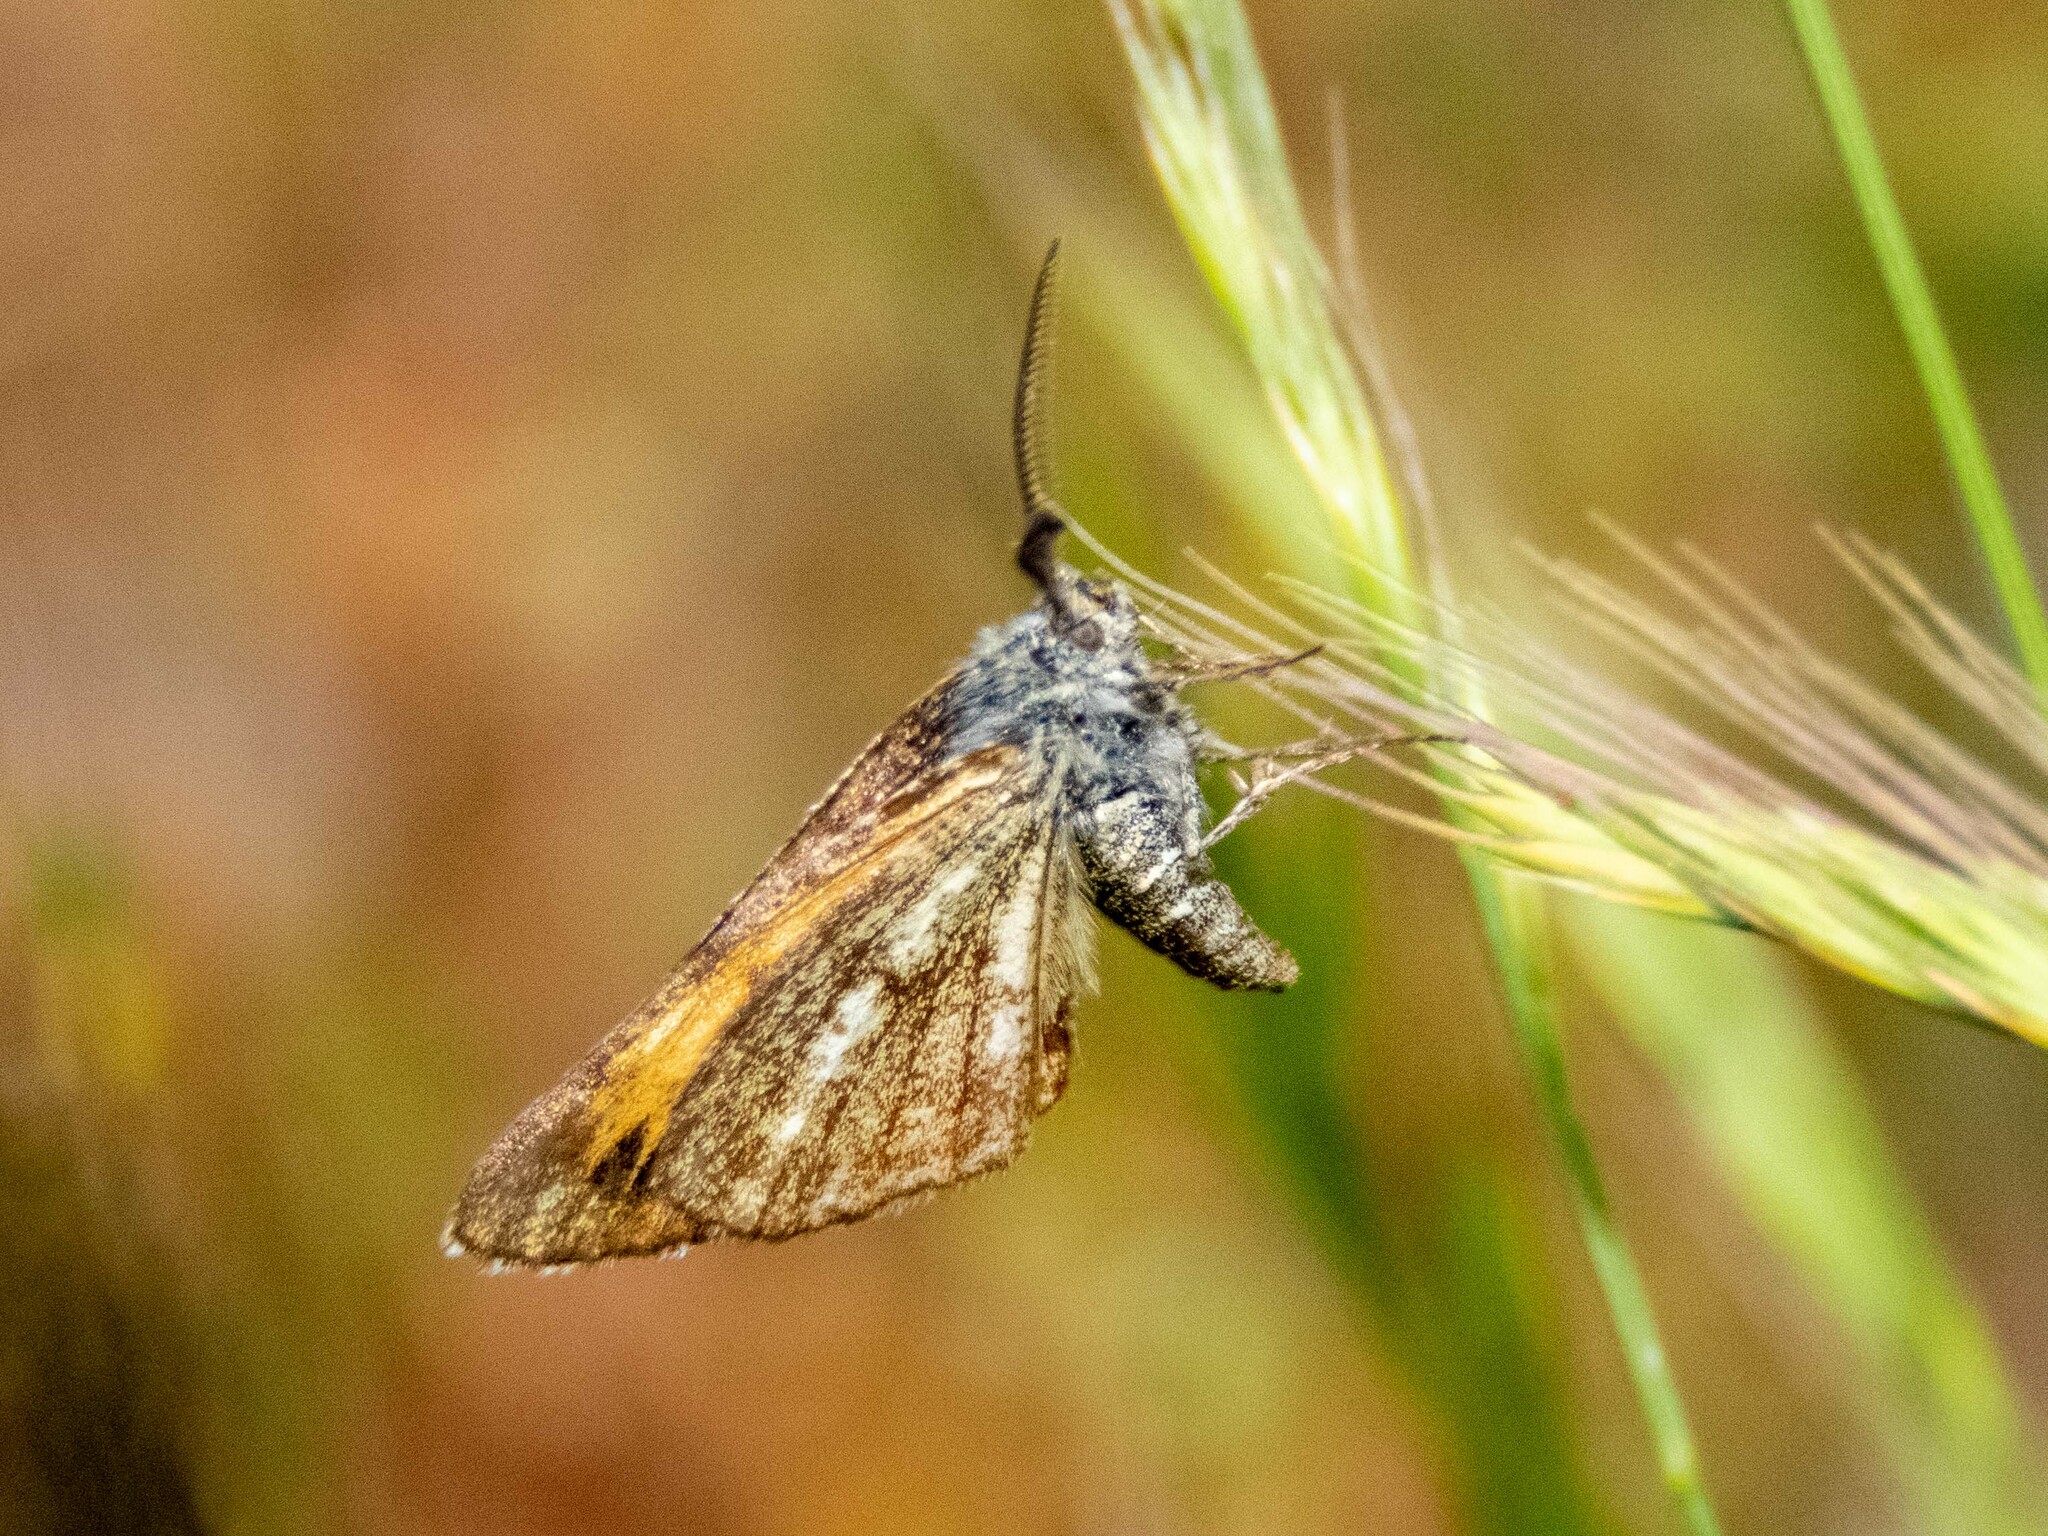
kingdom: Animalia
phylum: Arthropoda
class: Insecta
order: Lepidoptera
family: Geometridae
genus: Isturgia
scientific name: Isturgia famula
